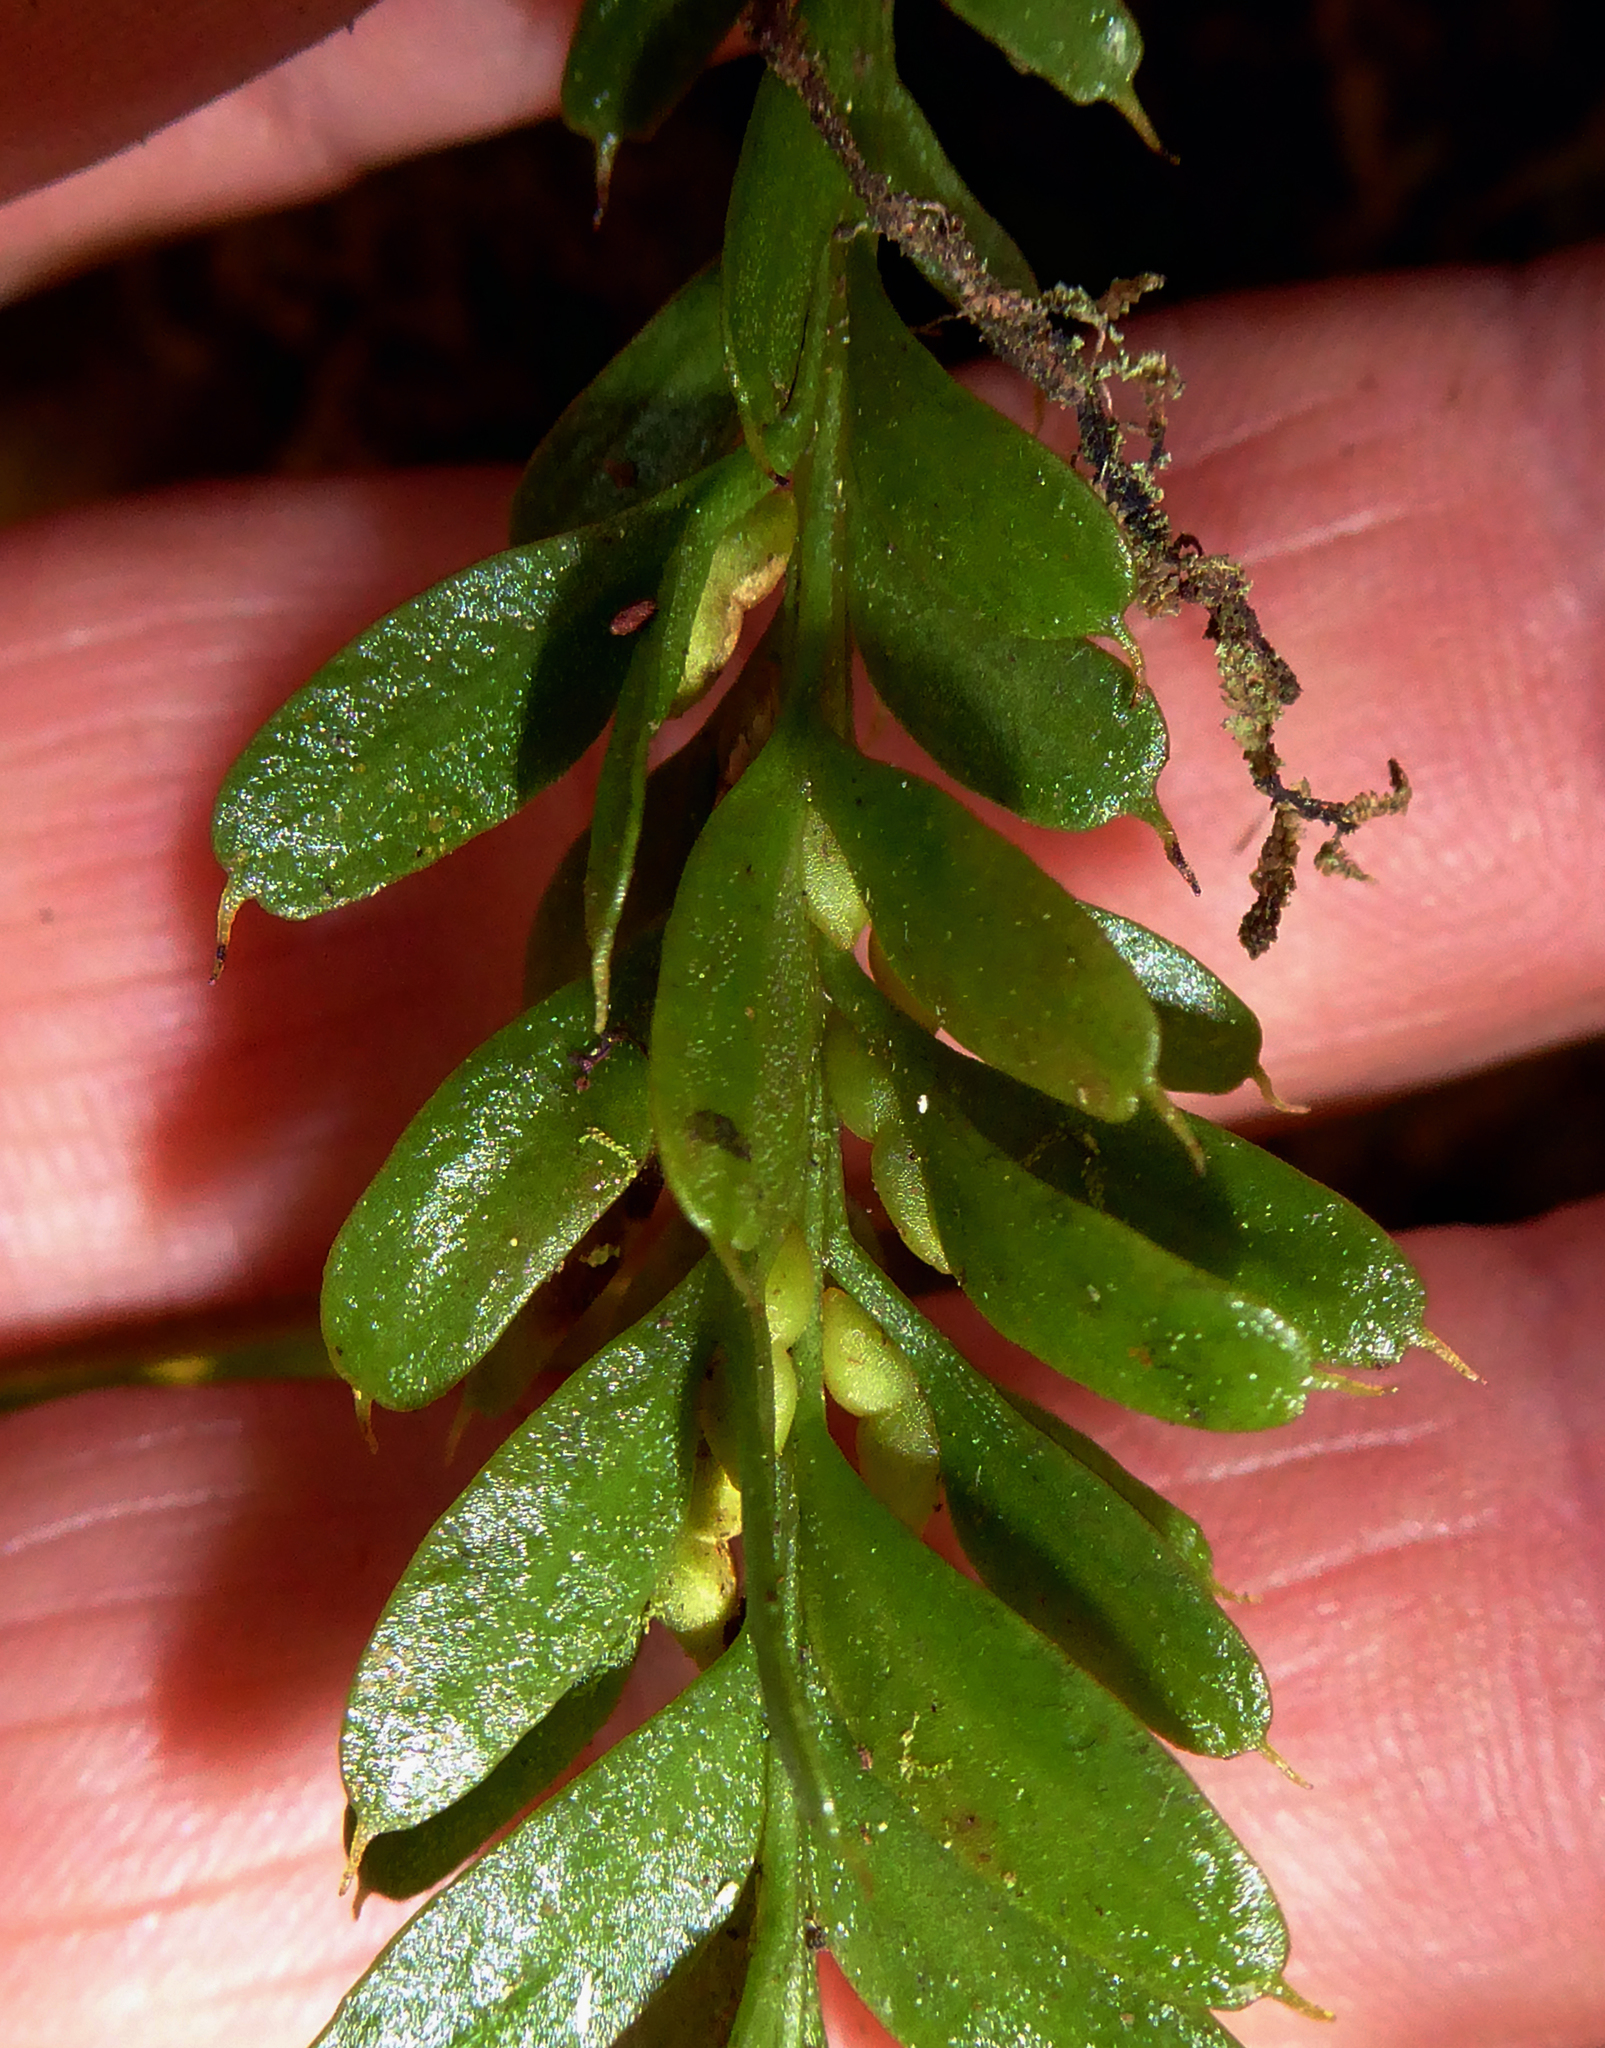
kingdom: Plantae
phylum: Tracheophyta
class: Polypodiopsida
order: Psilotales
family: Psilotaceae
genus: Tmesipteris
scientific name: Tmesipteris tannensis
